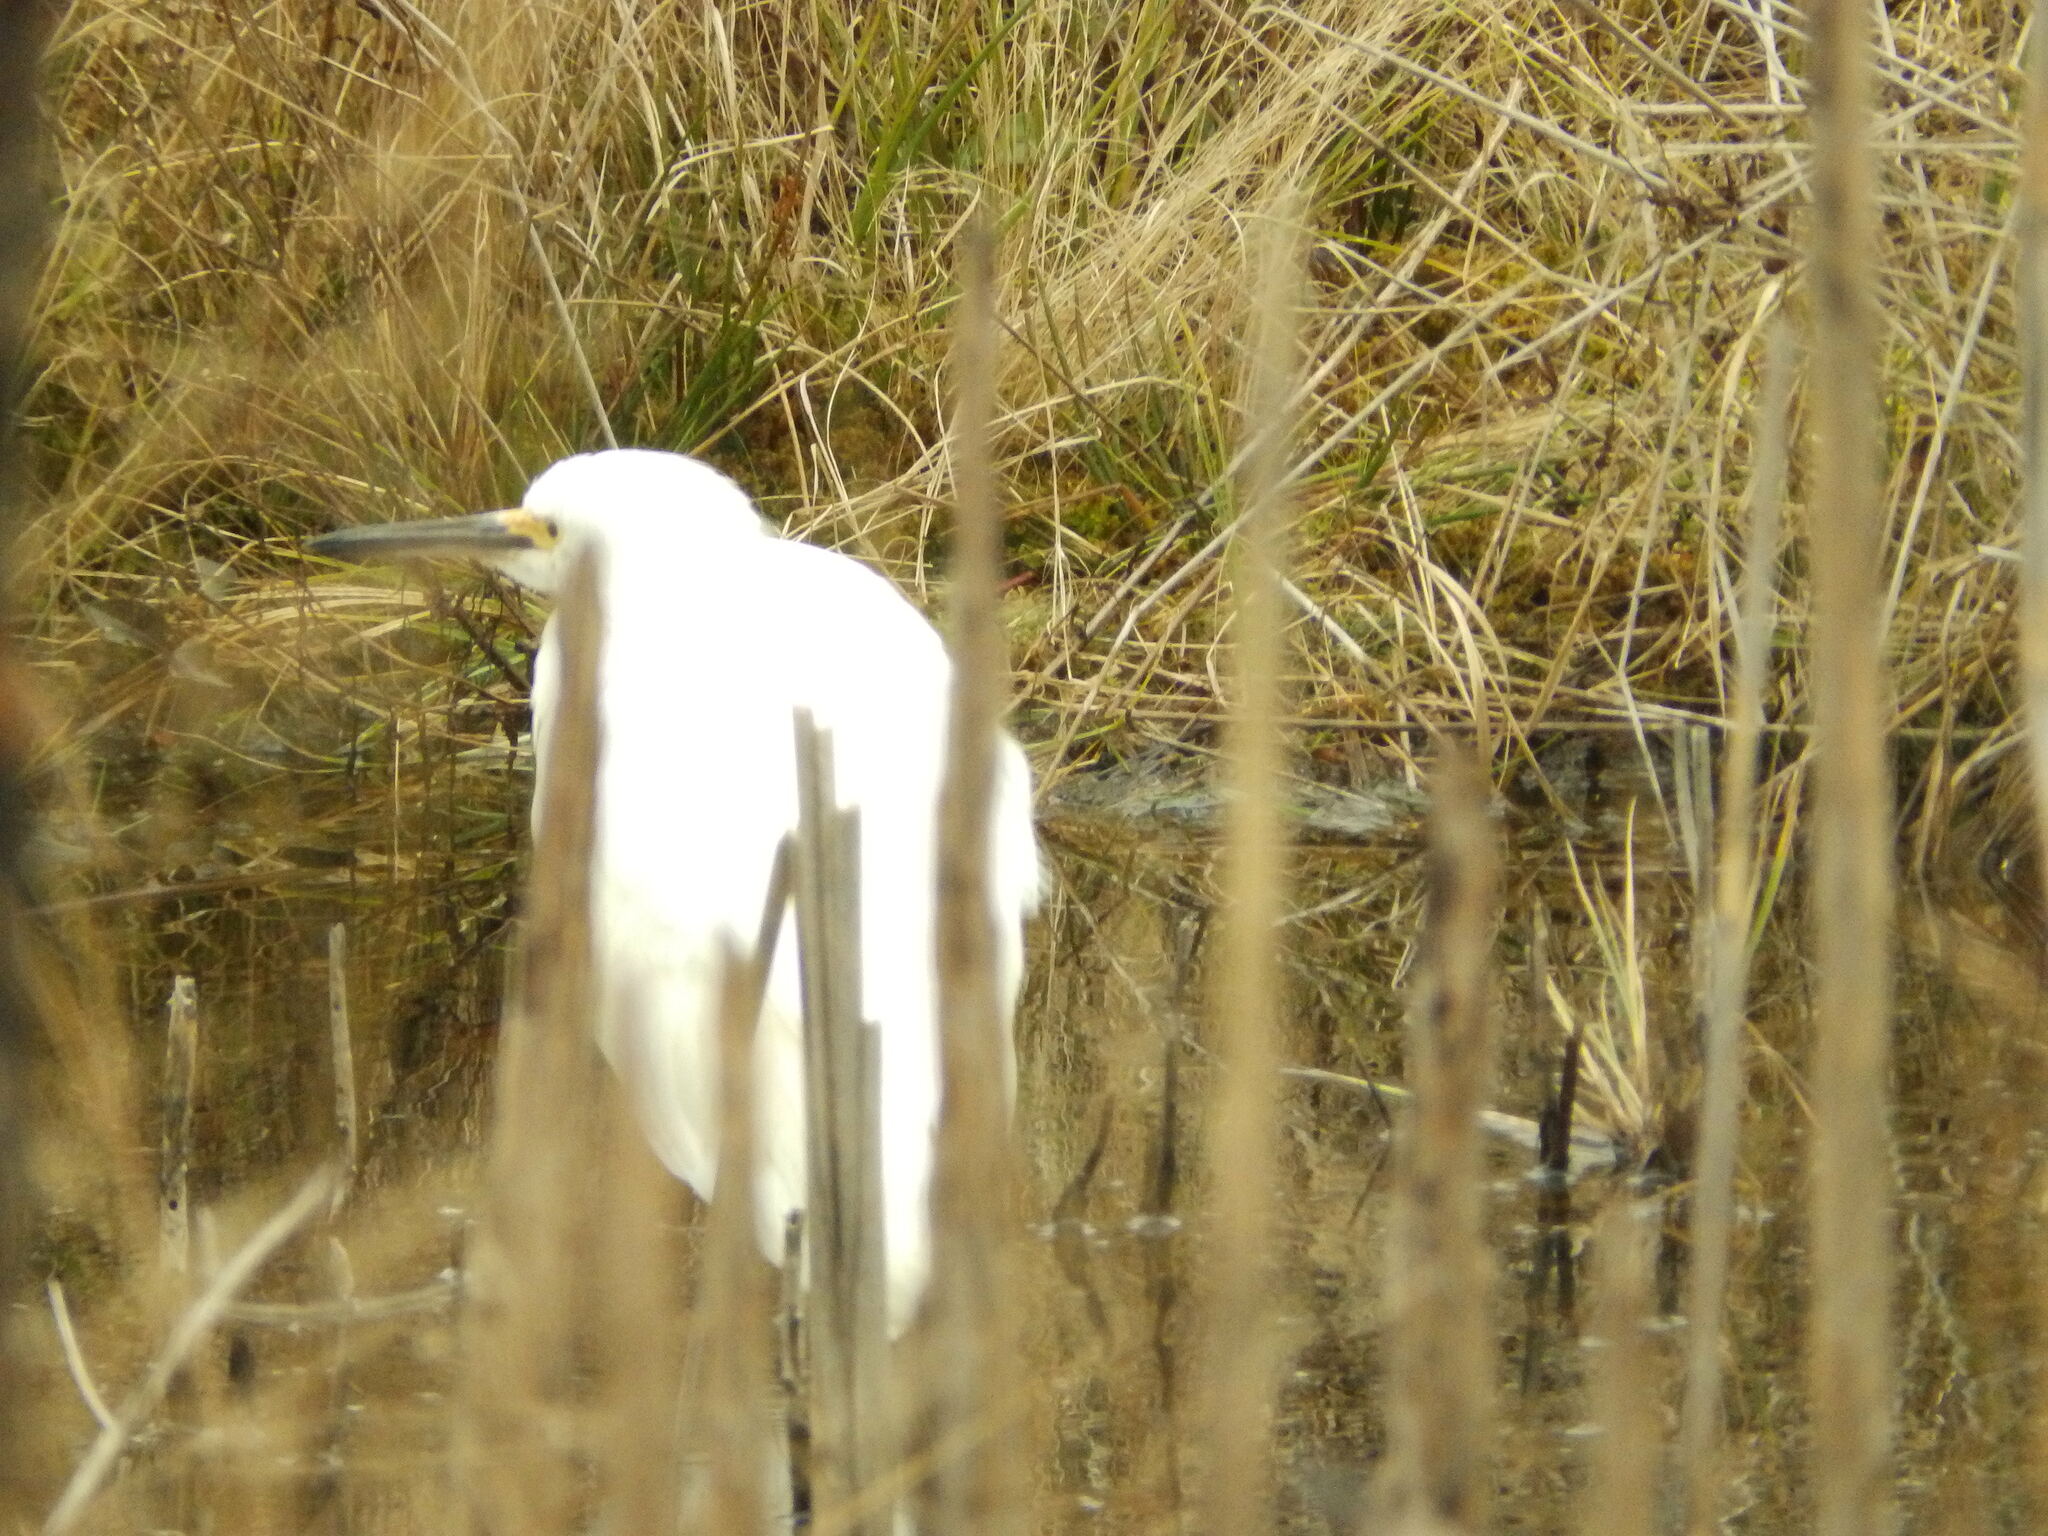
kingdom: Animalia
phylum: Chordata
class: Aves
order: Pelecaniformes
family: Ardeidae
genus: Egretta
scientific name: Egretta thula
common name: Snowy egret
